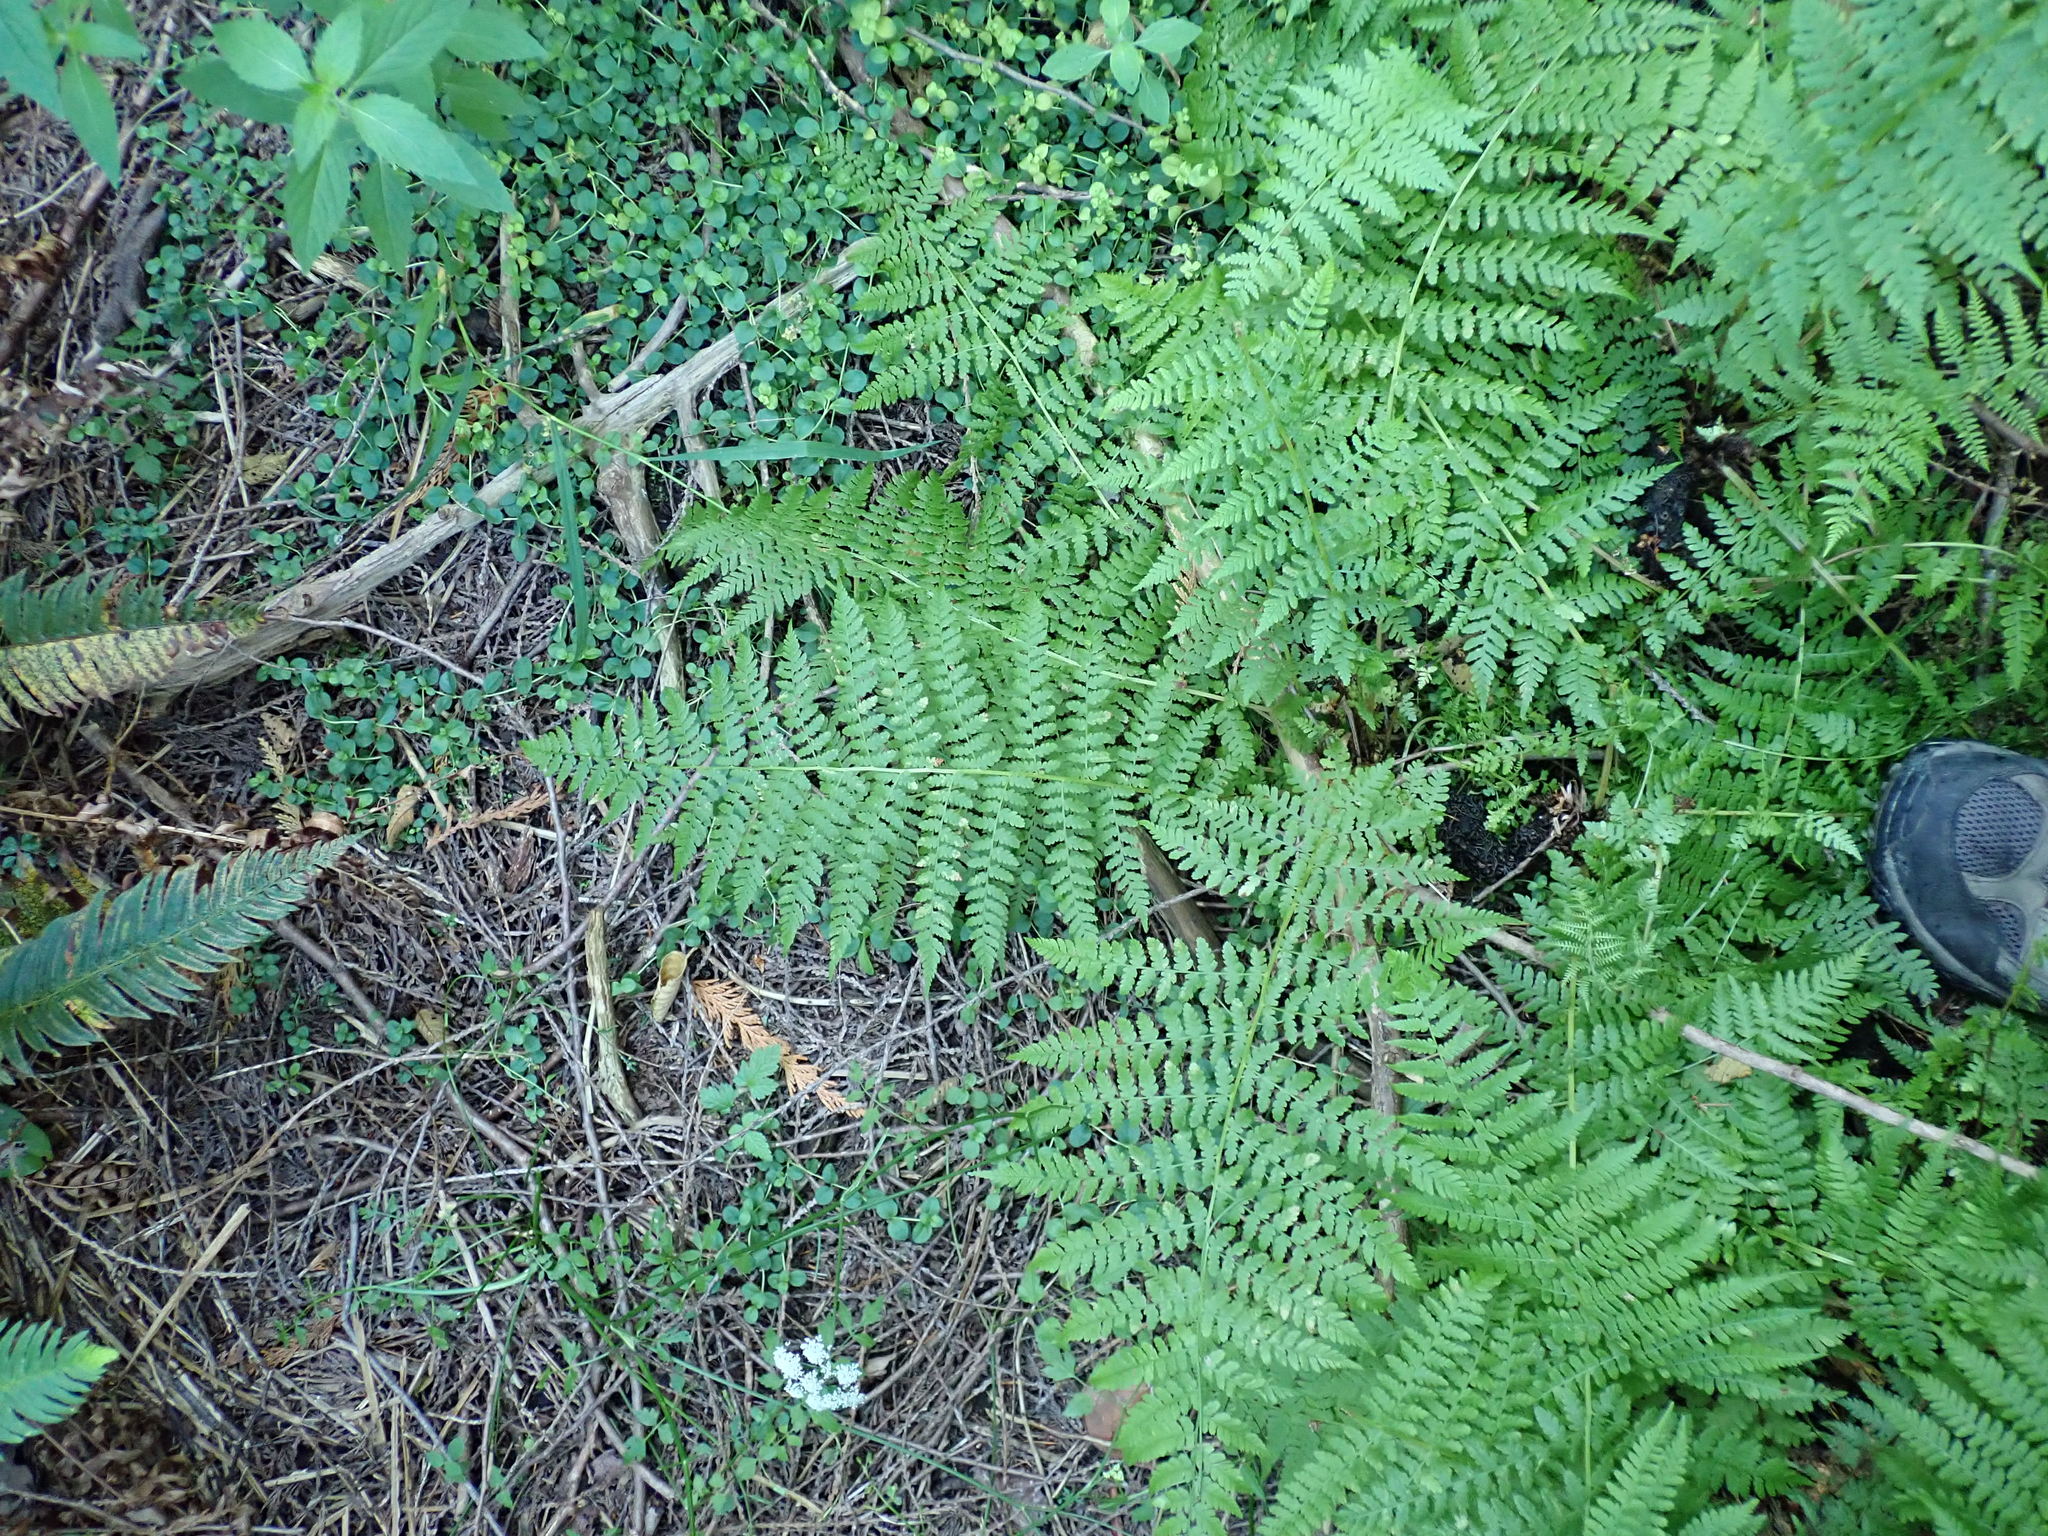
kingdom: Plantae
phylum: Tracheophyta
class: Polypodiopsida
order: Polypodiales
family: Athyriaceae
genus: Athyrium
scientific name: Athyrium filix-femina
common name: Lady fern
